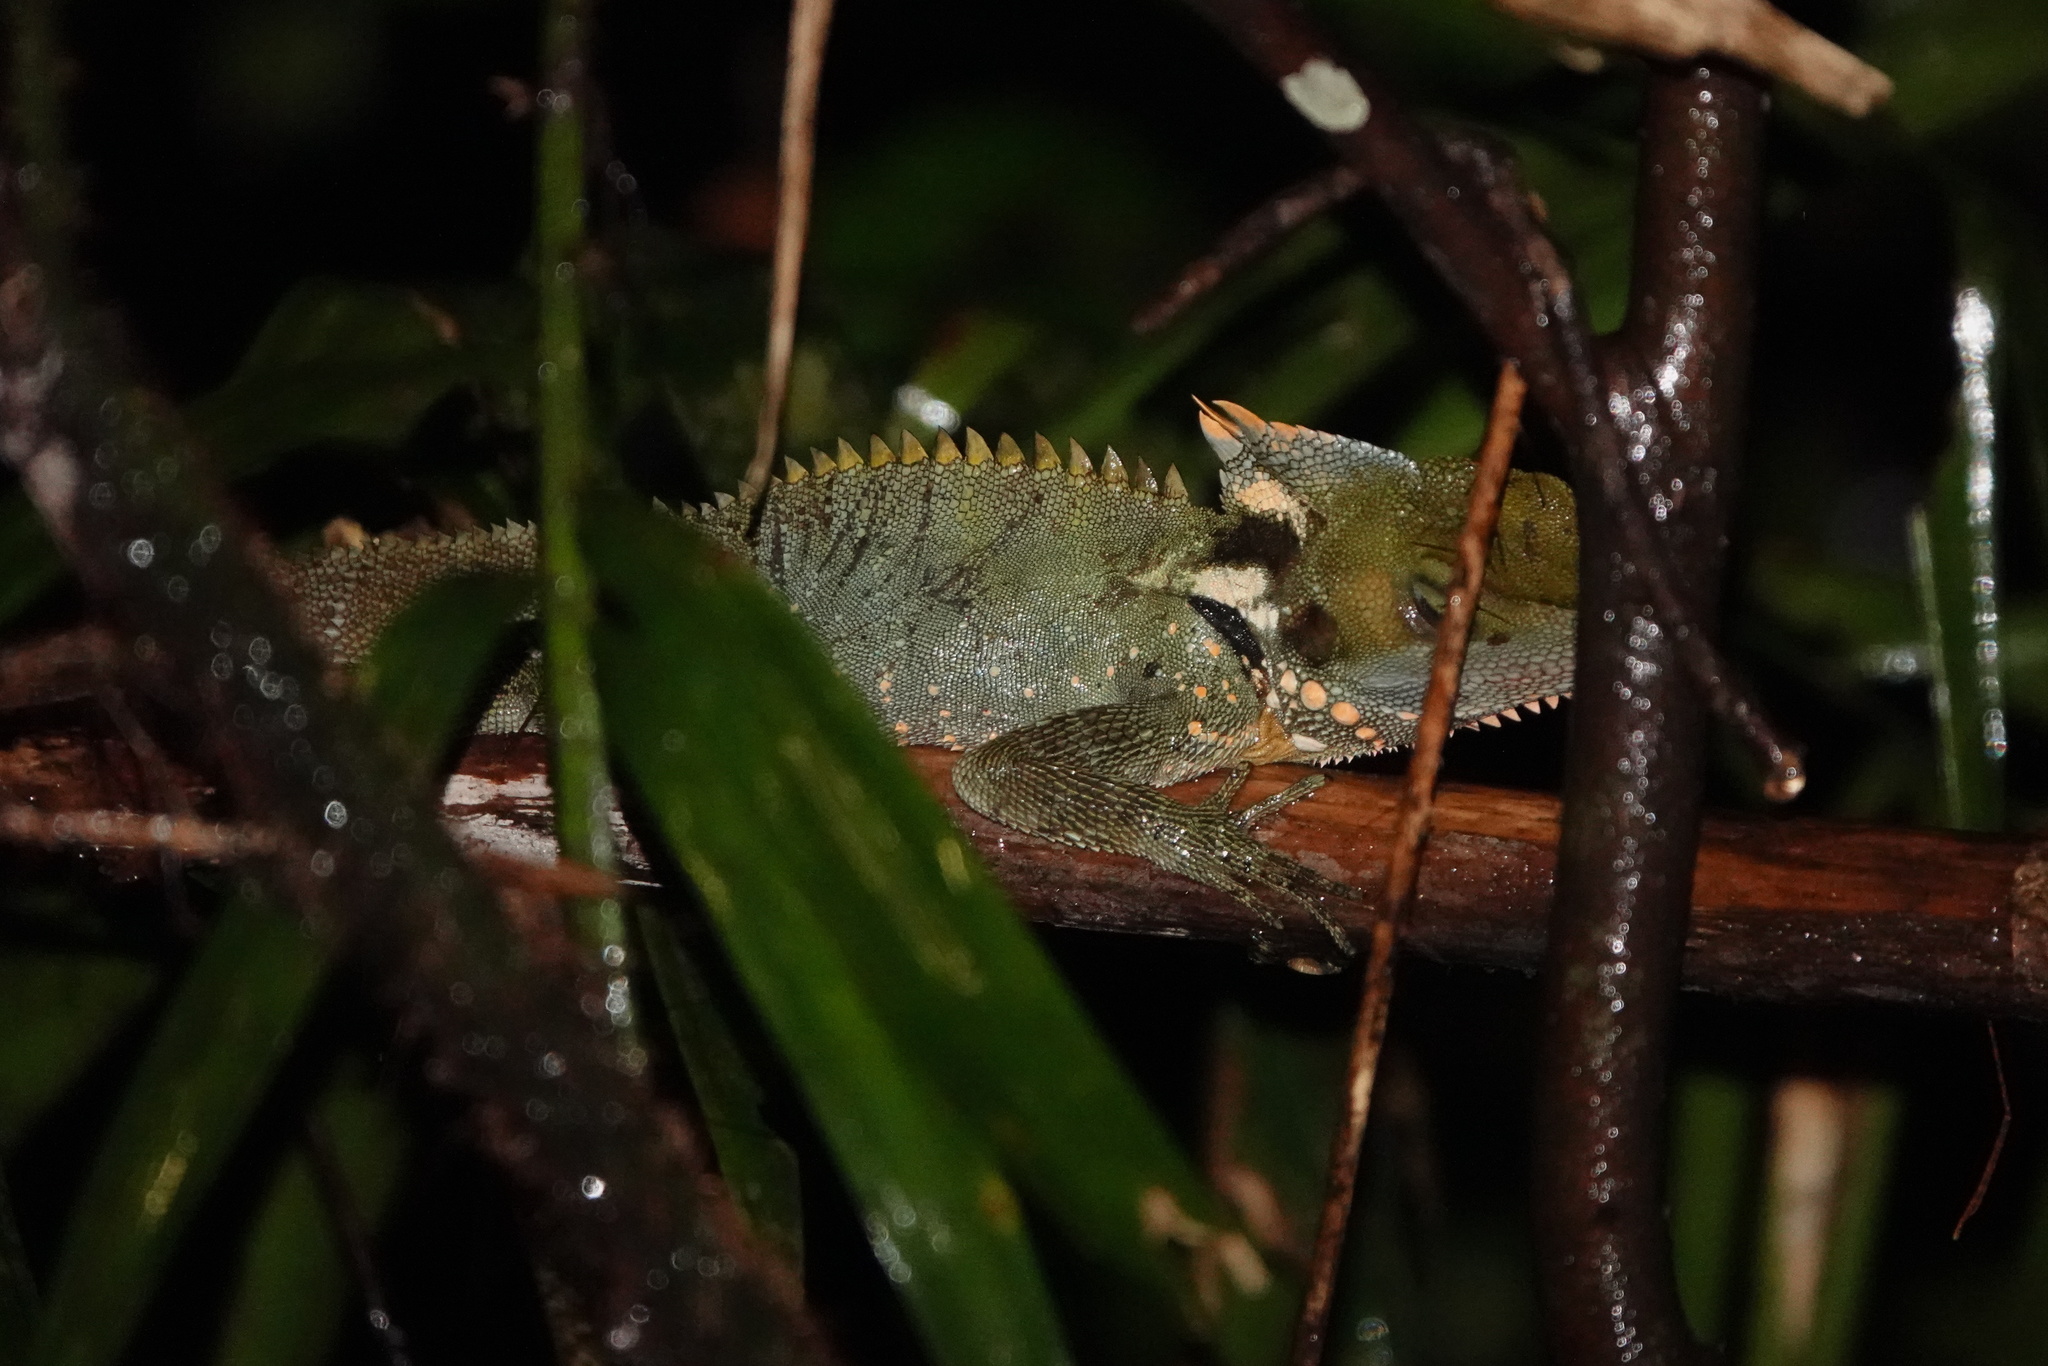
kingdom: Animalia
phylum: Chordata
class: Squamata
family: Agamidae
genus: Lophosaurus
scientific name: Lophosaurus boydii
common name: Boyd's forest dragon
